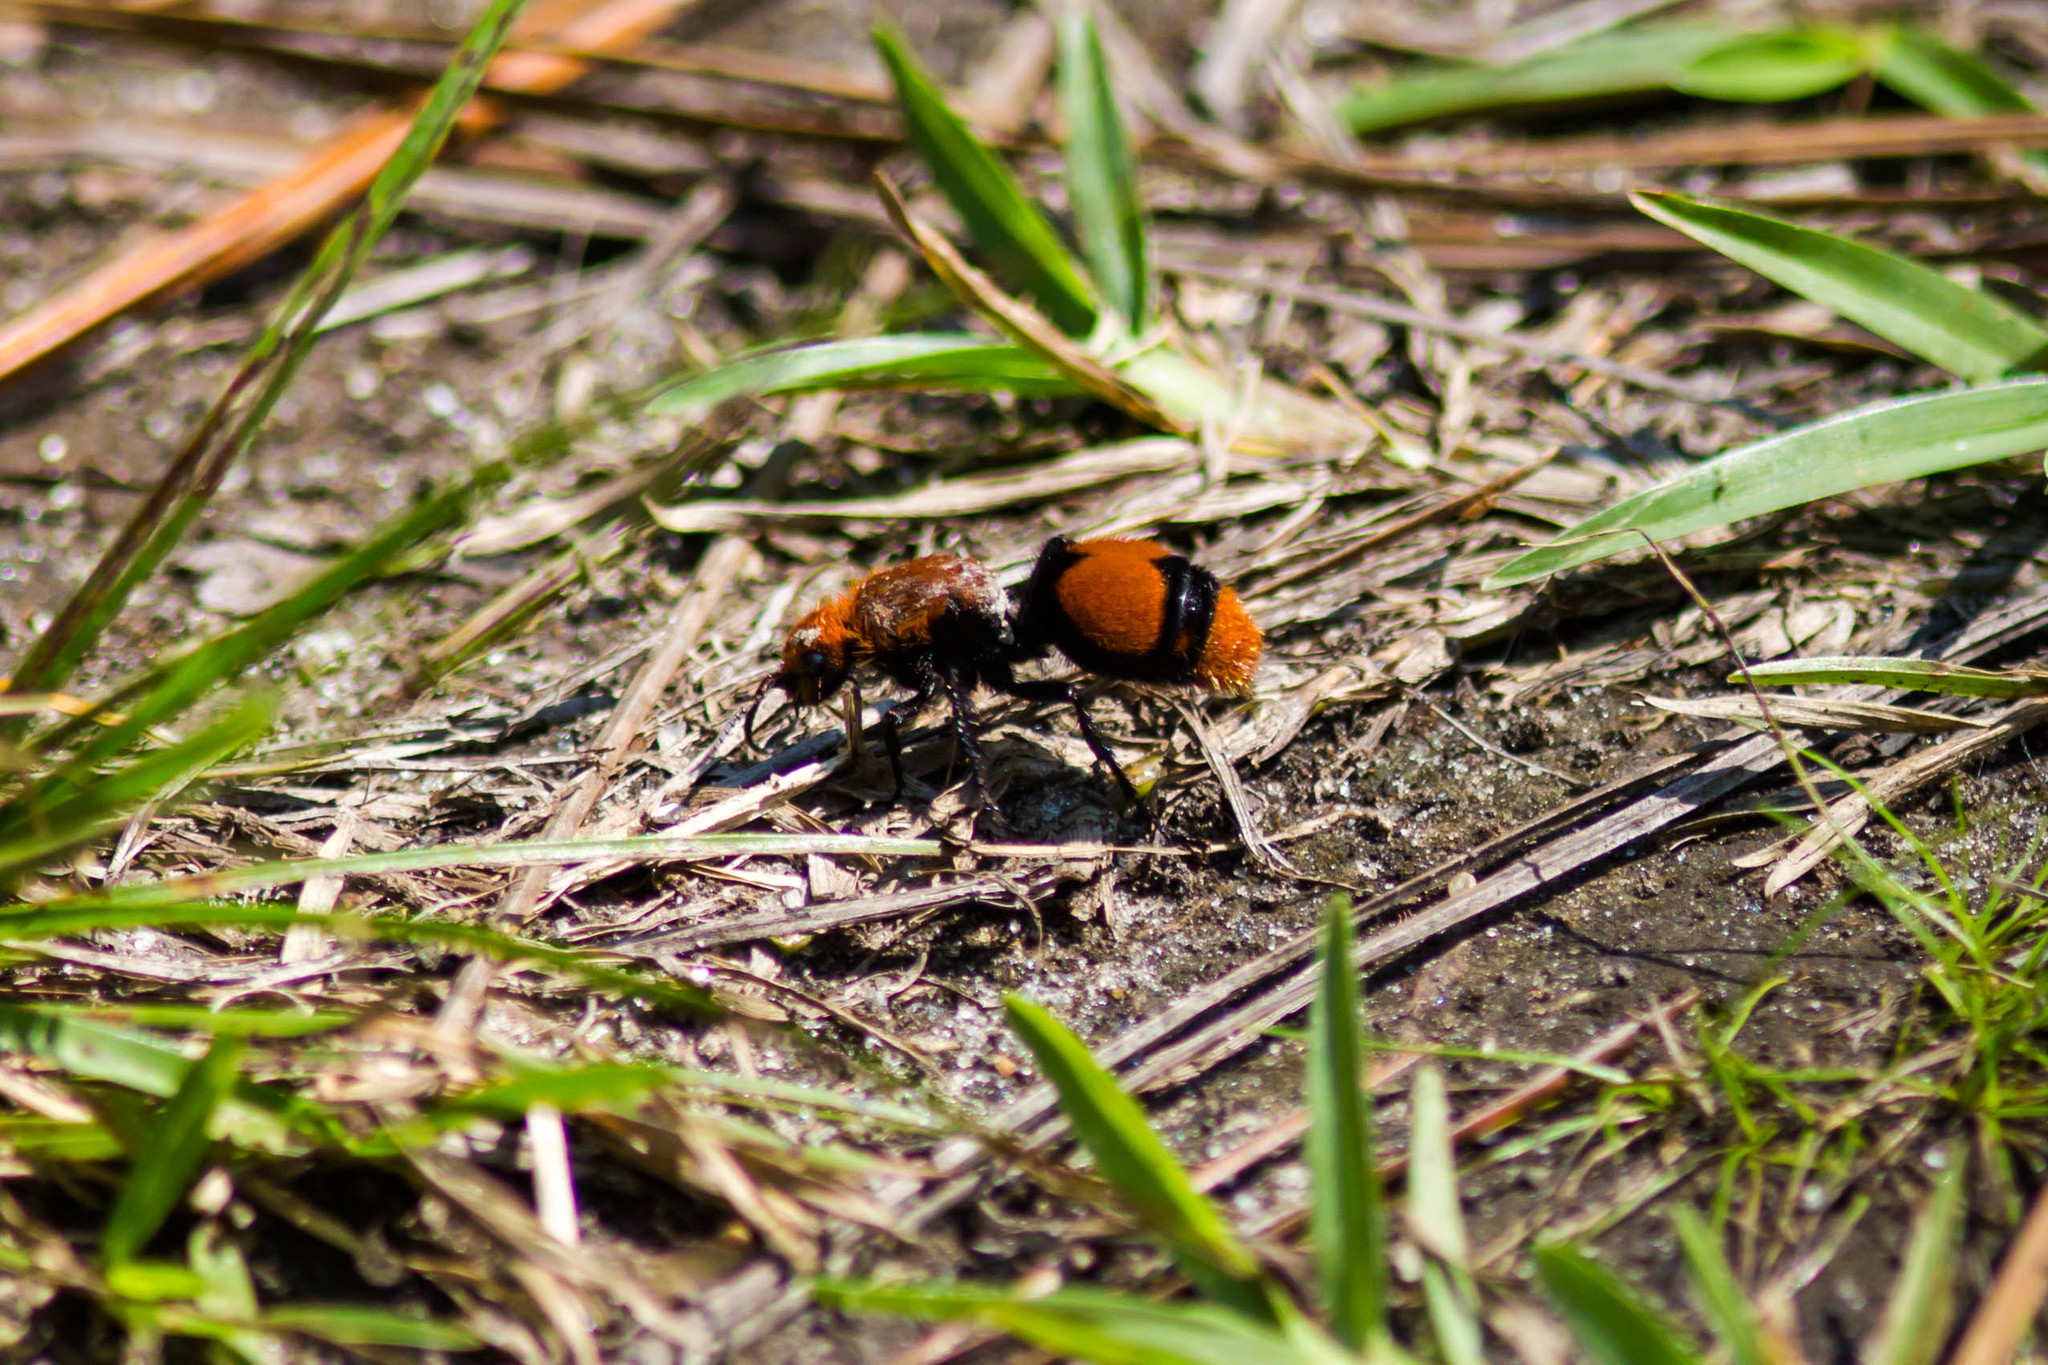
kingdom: Animalia
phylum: Arthropoda
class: Insecta
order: Hymenoptera
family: Mutillidae
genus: Dasymutilla
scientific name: Dasymutilla occidentalis
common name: Common eastern velvet ant
